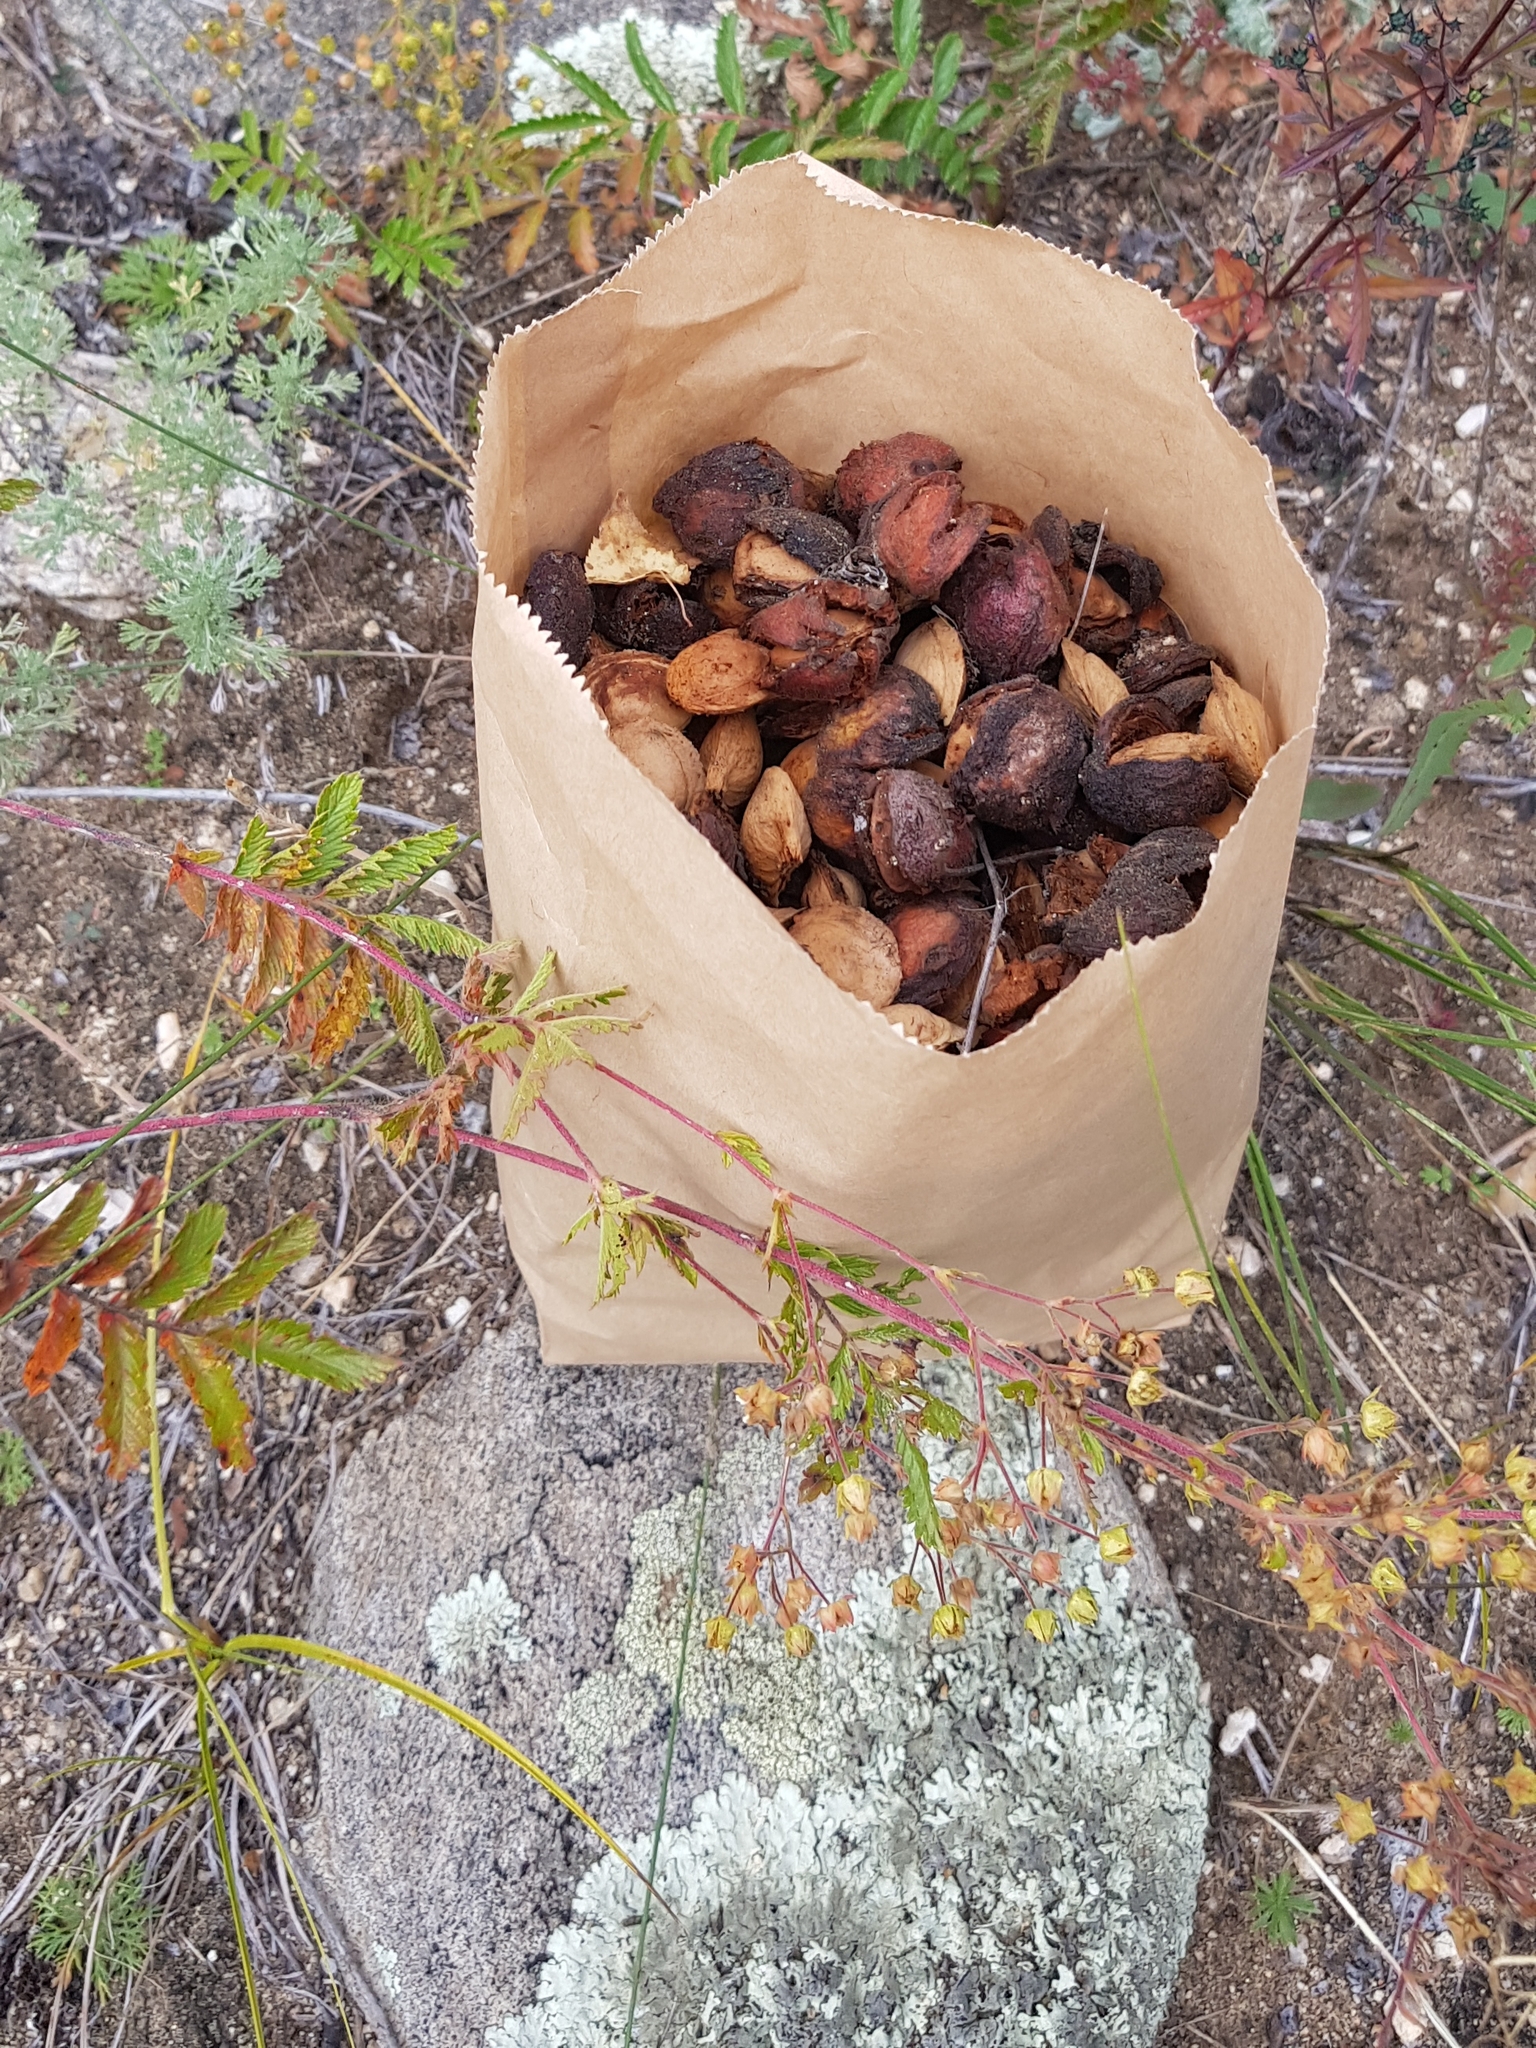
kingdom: Plantae
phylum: Tracheophyta
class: Magnoliopsida
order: Rosales
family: Rosaceae
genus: Prunus
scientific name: Prunus sibirica
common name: Siberian apricot
